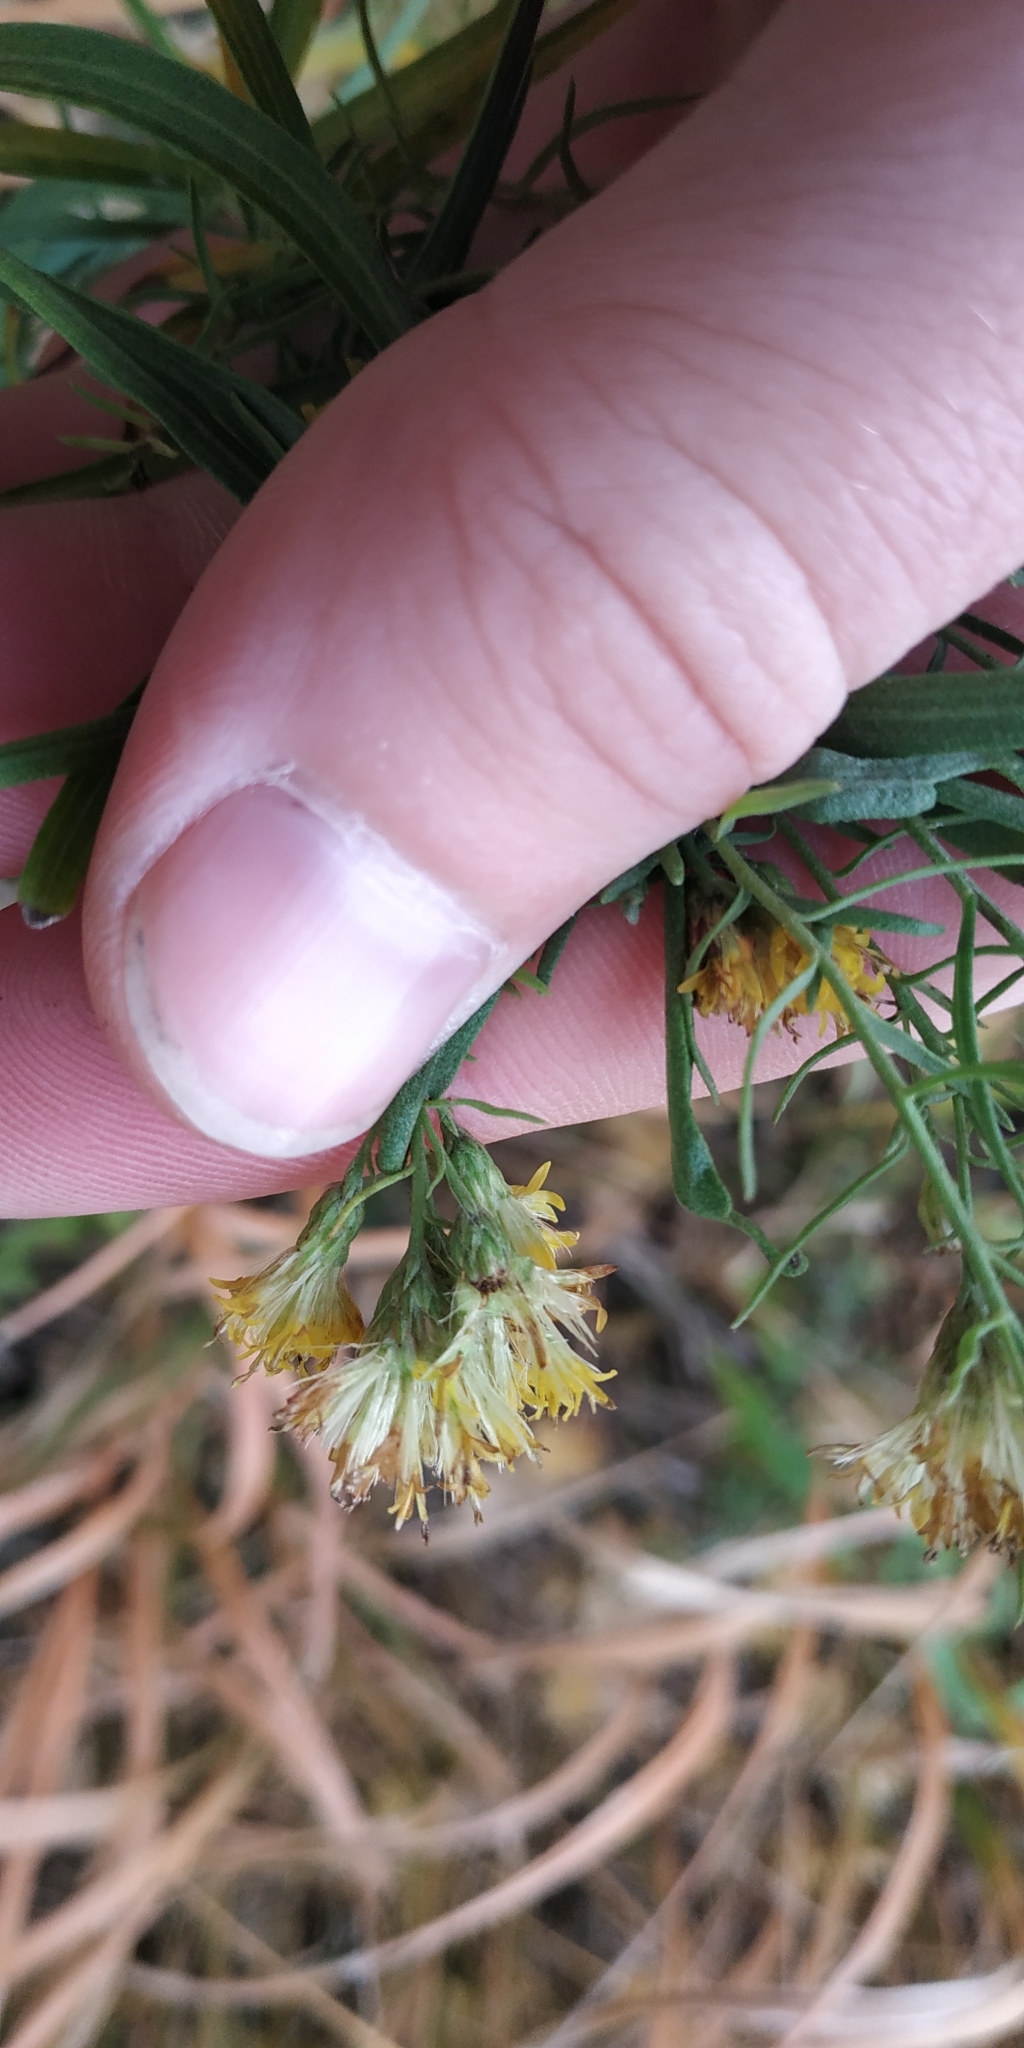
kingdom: Plantae
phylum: Tracheophyta
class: Magnoliopsida
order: Asterales
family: Asteraceae
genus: Galatella
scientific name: Galatella biflora
